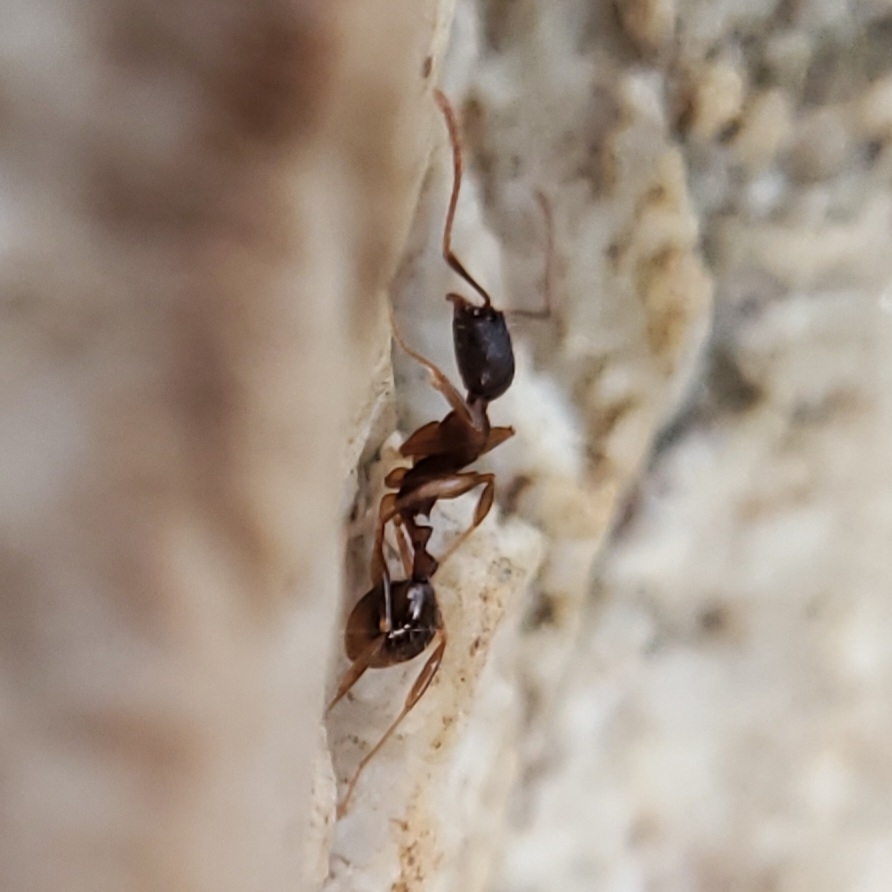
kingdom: Animalia
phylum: Arthropoda
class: Insecta
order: Hymenoptera
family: Formicidae
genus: Aphaenogaster
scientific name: Aphaenogaster carolinensis
